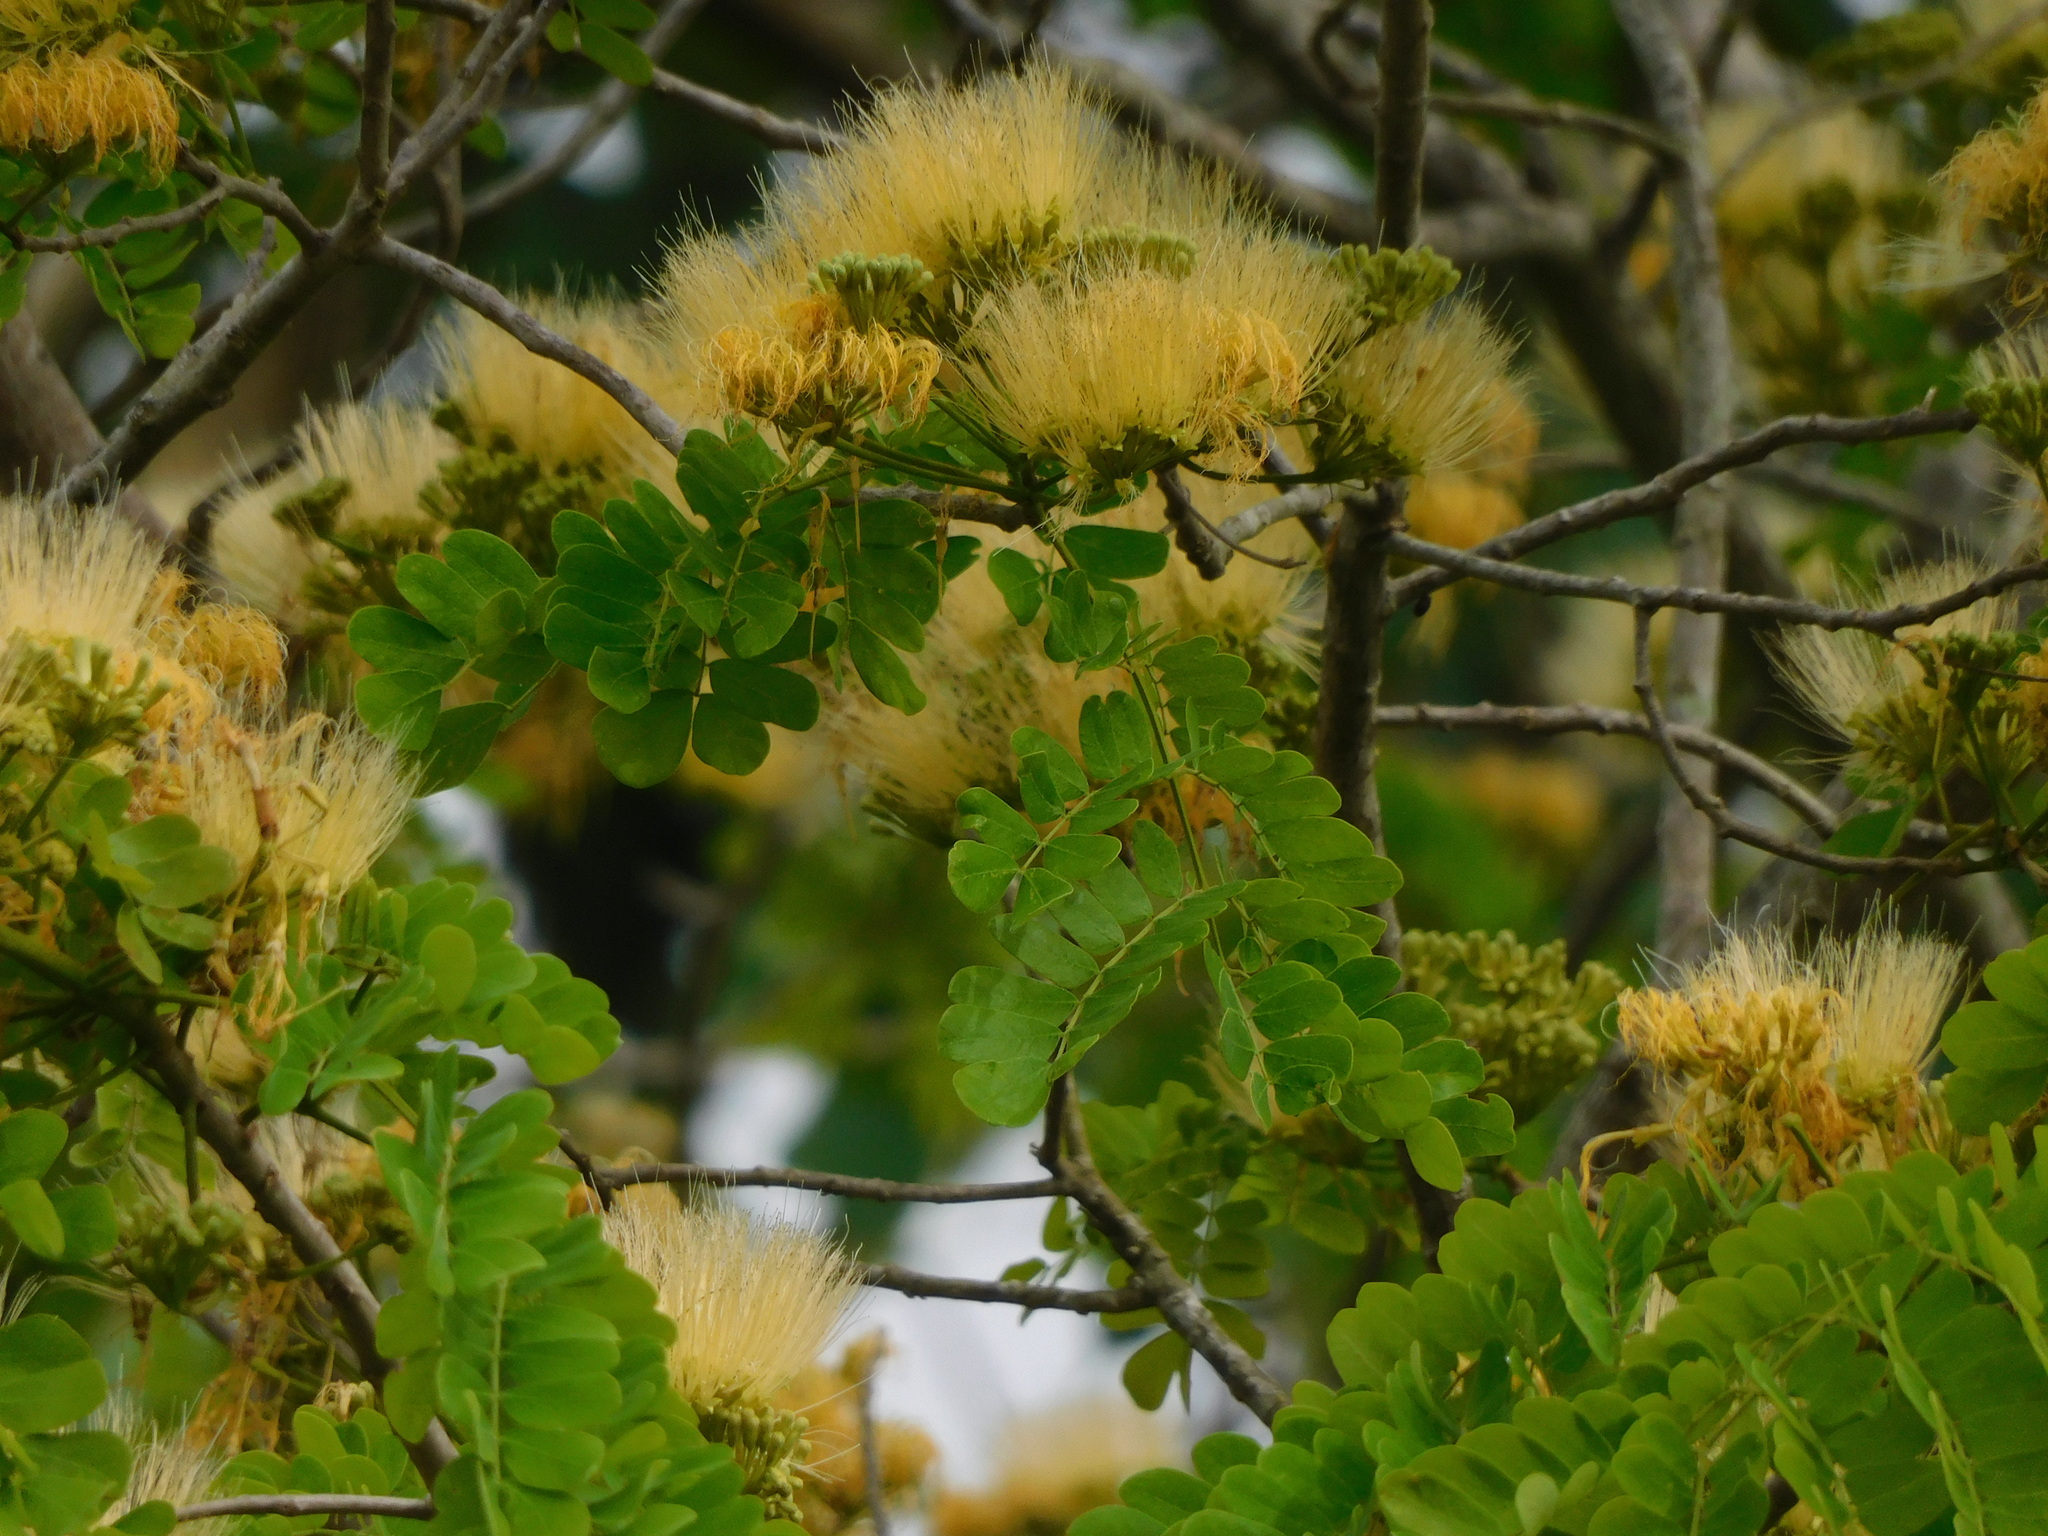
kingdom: Plantae
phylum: Tracheophyta
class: Magnoliopsida
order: Fabales
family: Fabaceae
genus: Pseudosamanea
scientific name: Pseudosamanea guachapele
